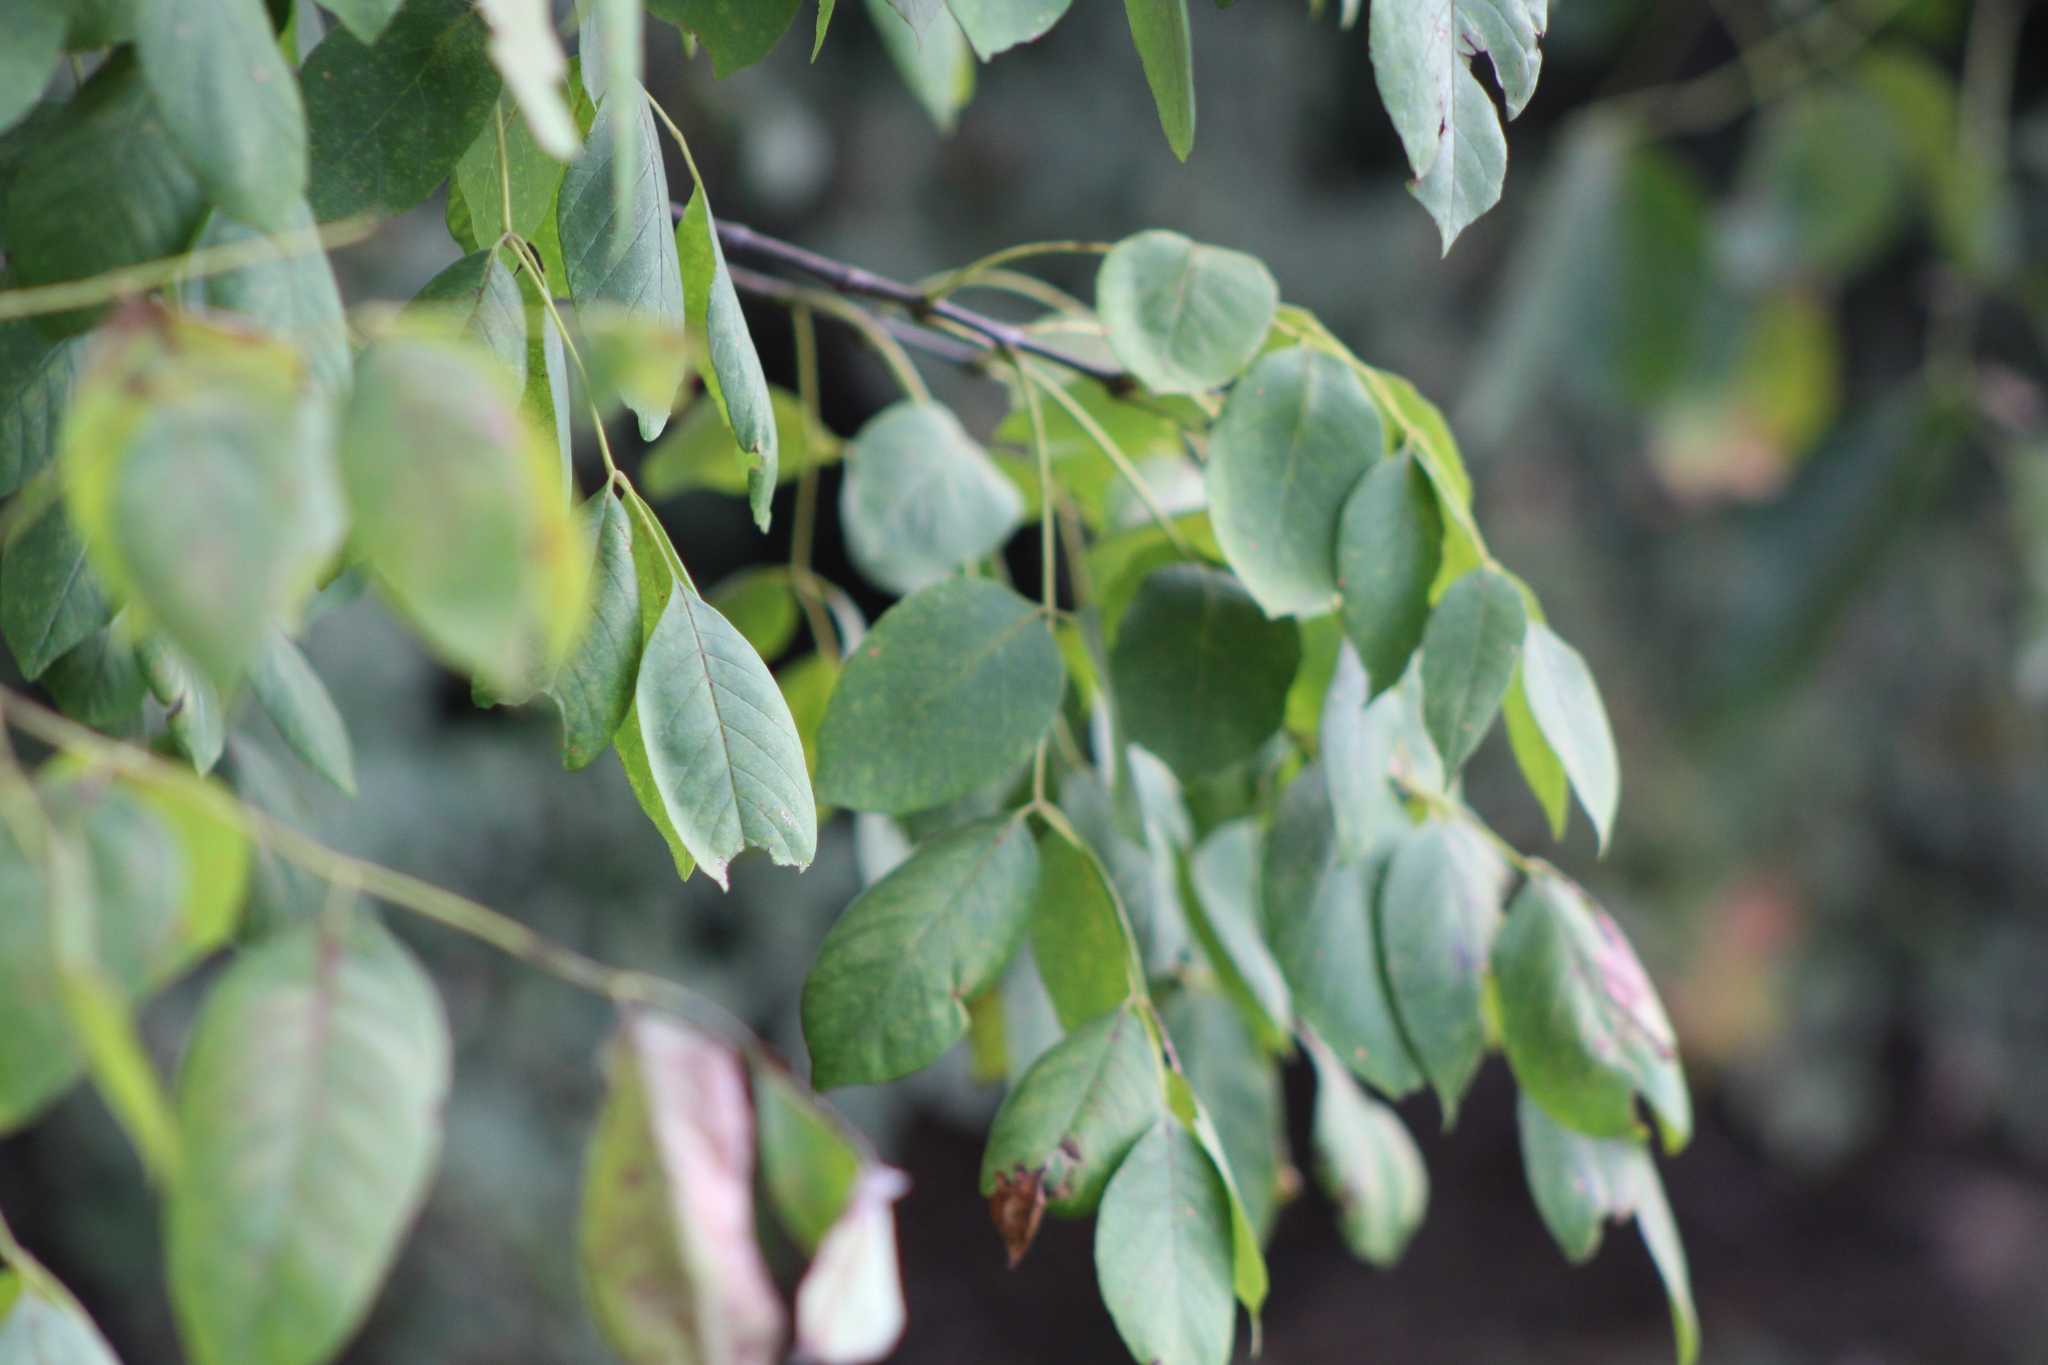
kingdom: Plantae
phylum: Tracheophyta
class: Magnoliopsida
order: Lamiales
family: Oleaceae
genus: Fraxinus
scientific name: Fraxinus
